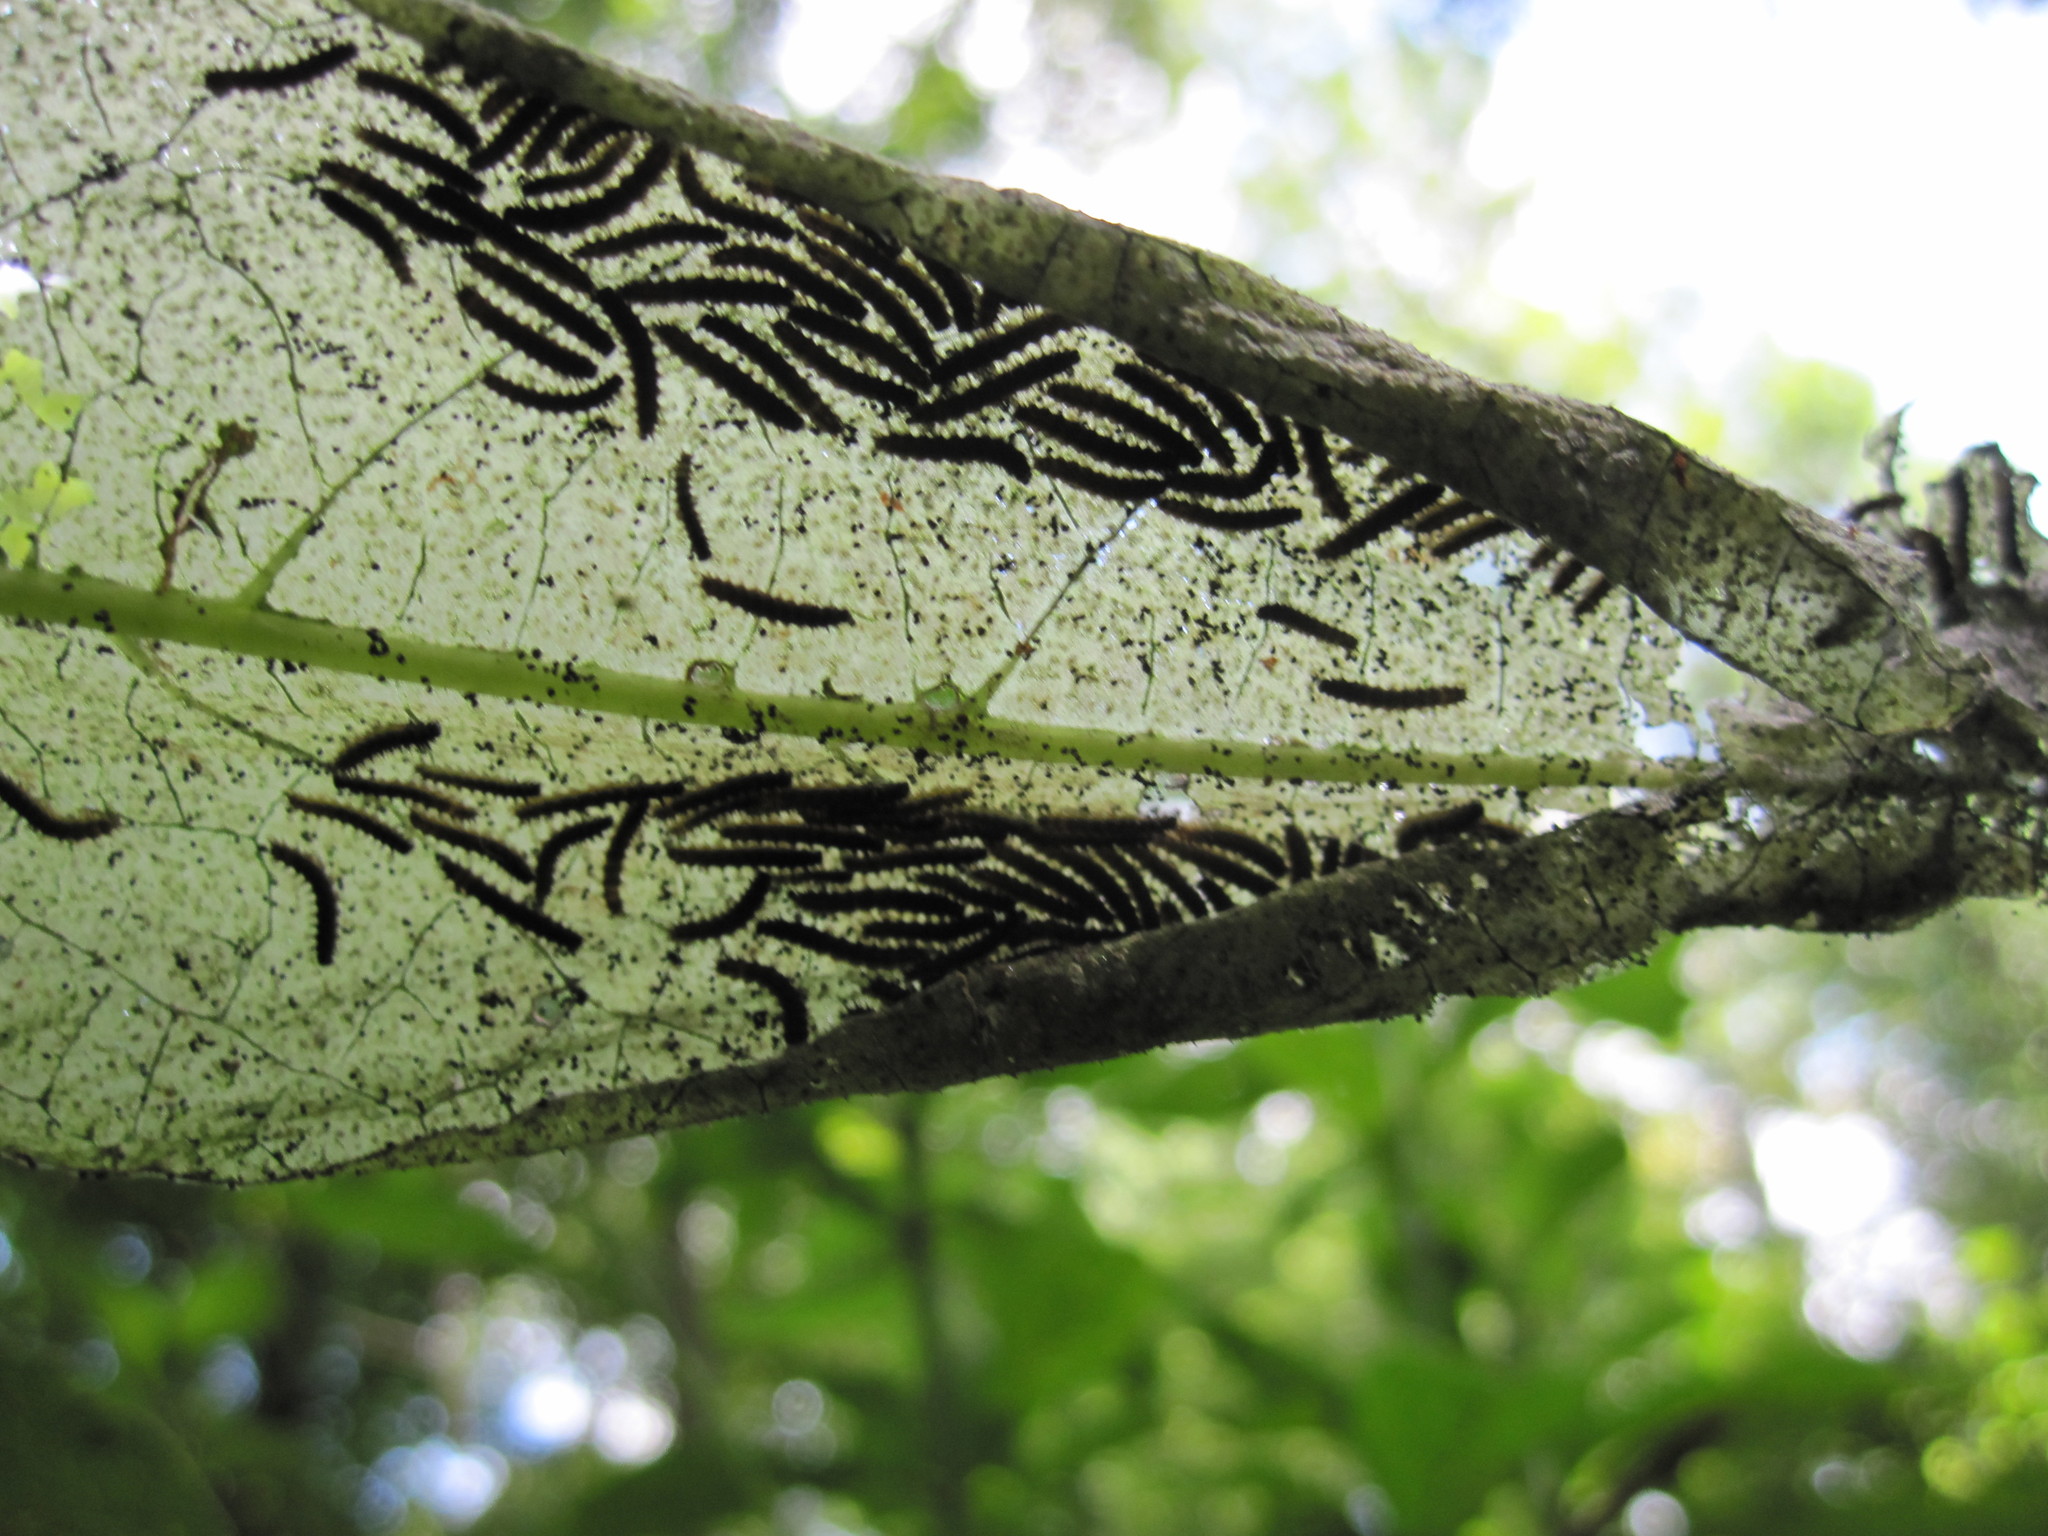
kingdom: Animalia
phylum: Arthropoda
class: Insecta
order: Lepidoptera
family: Nymphalidae
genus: Chlosyne
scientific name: Chlosyne nycteis
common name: Silvery checkerspot
